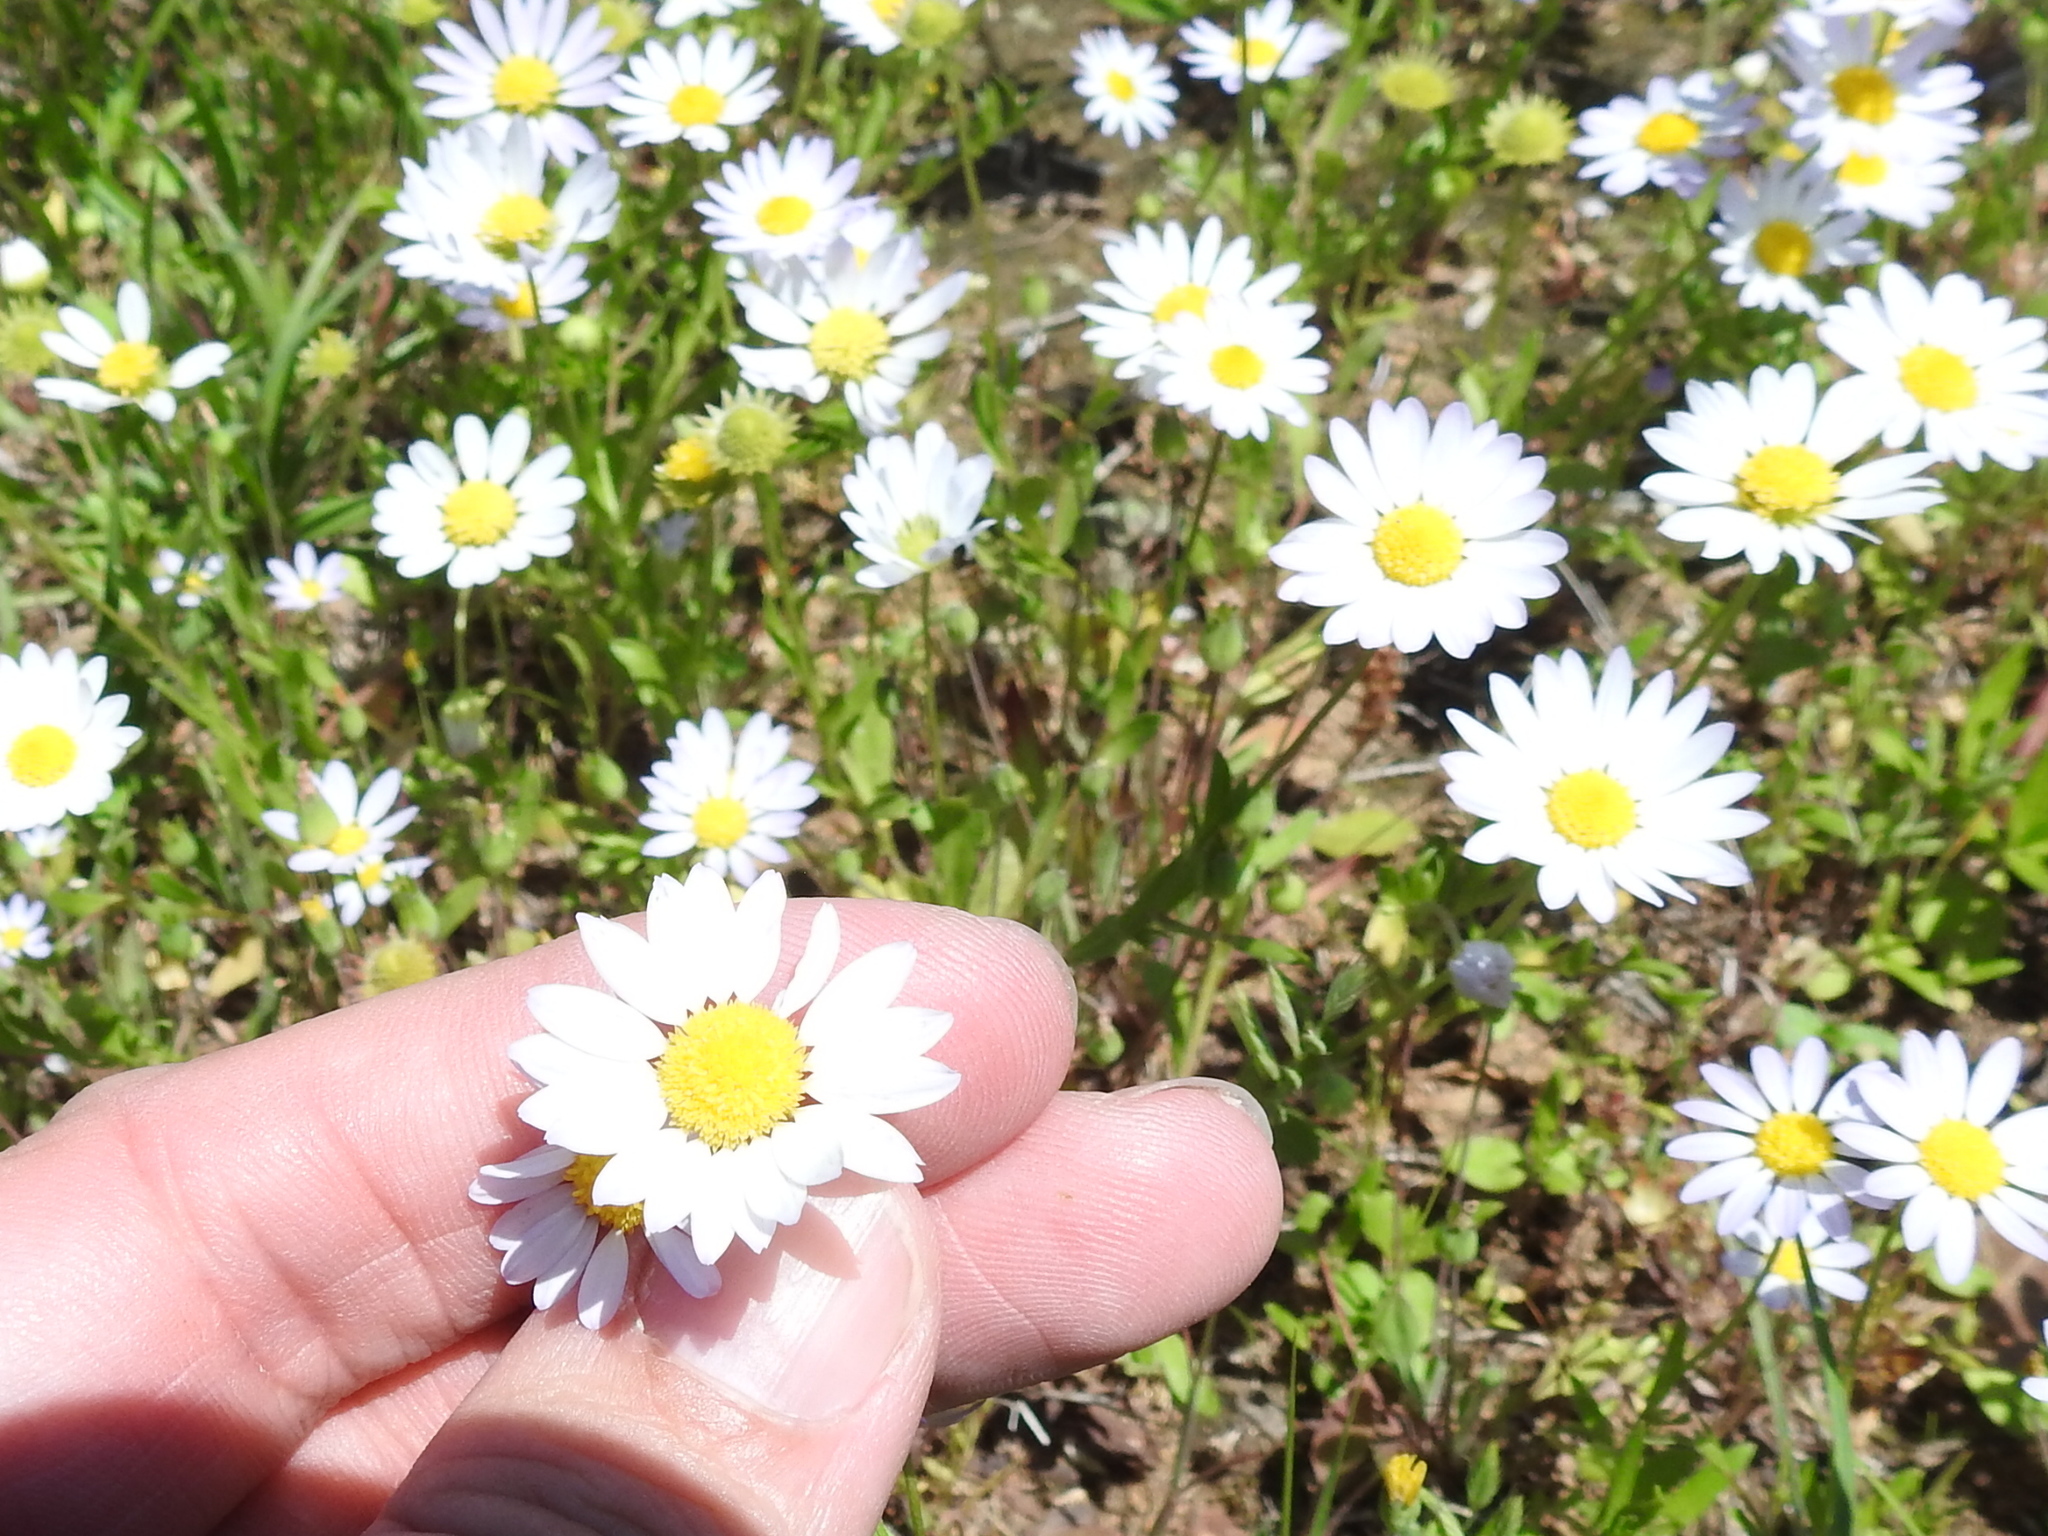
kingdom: Plantae
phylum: Tracheophyta
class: Magnoliopsida
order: Asterales
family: Asteraceae
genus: Astranthium
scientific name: Astranthium ciliatum
